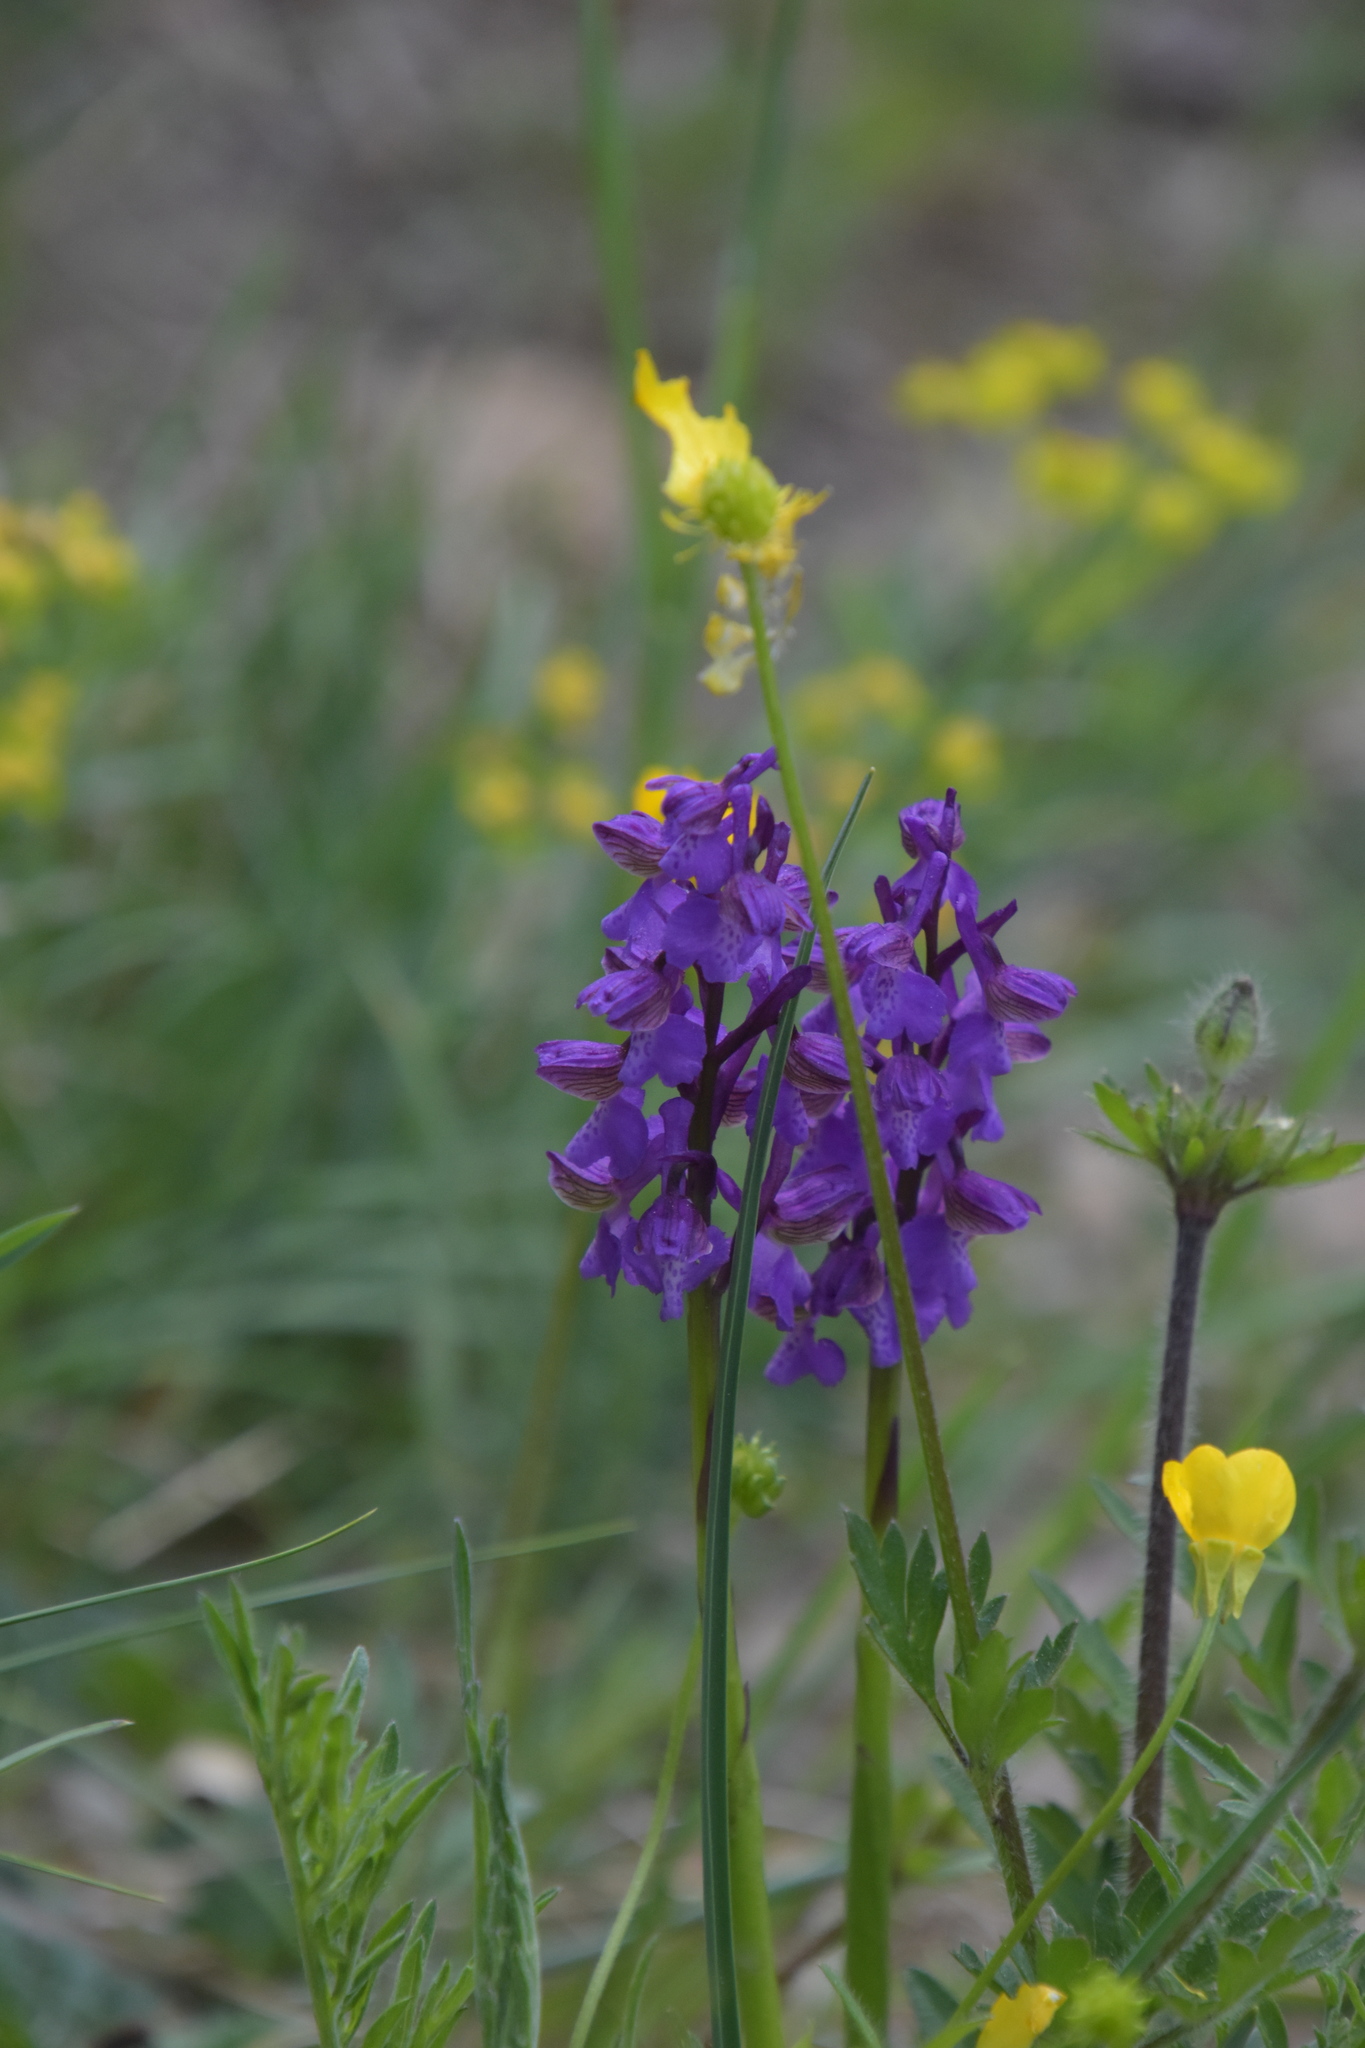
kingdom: Plantae
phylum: Tracheophyta
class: Liliopsida
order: Asparagales
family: Orchidaceae
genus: Anacamptis
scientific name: Anacamptis morio
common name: Green-winged orchid
